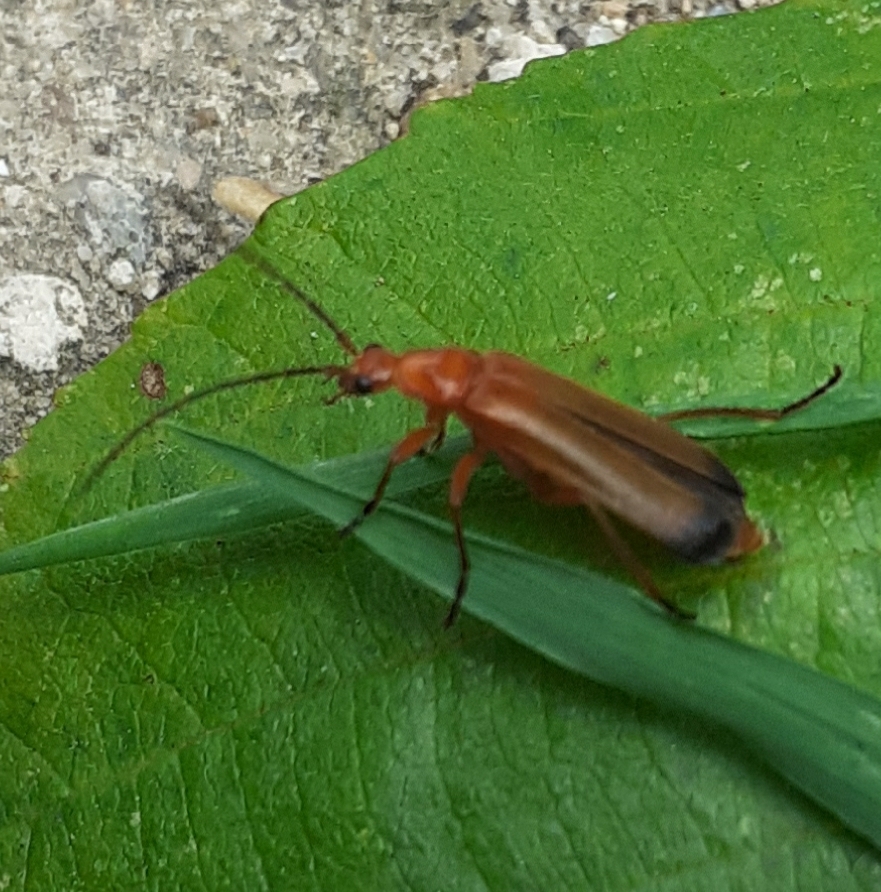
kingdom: Animalia
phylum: Arthropoda
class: Insecta
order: Coleoptera
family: Cantharidae
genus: Rhagonycha
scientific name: Rhagonycha fulva
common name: Common red soldier beetle
